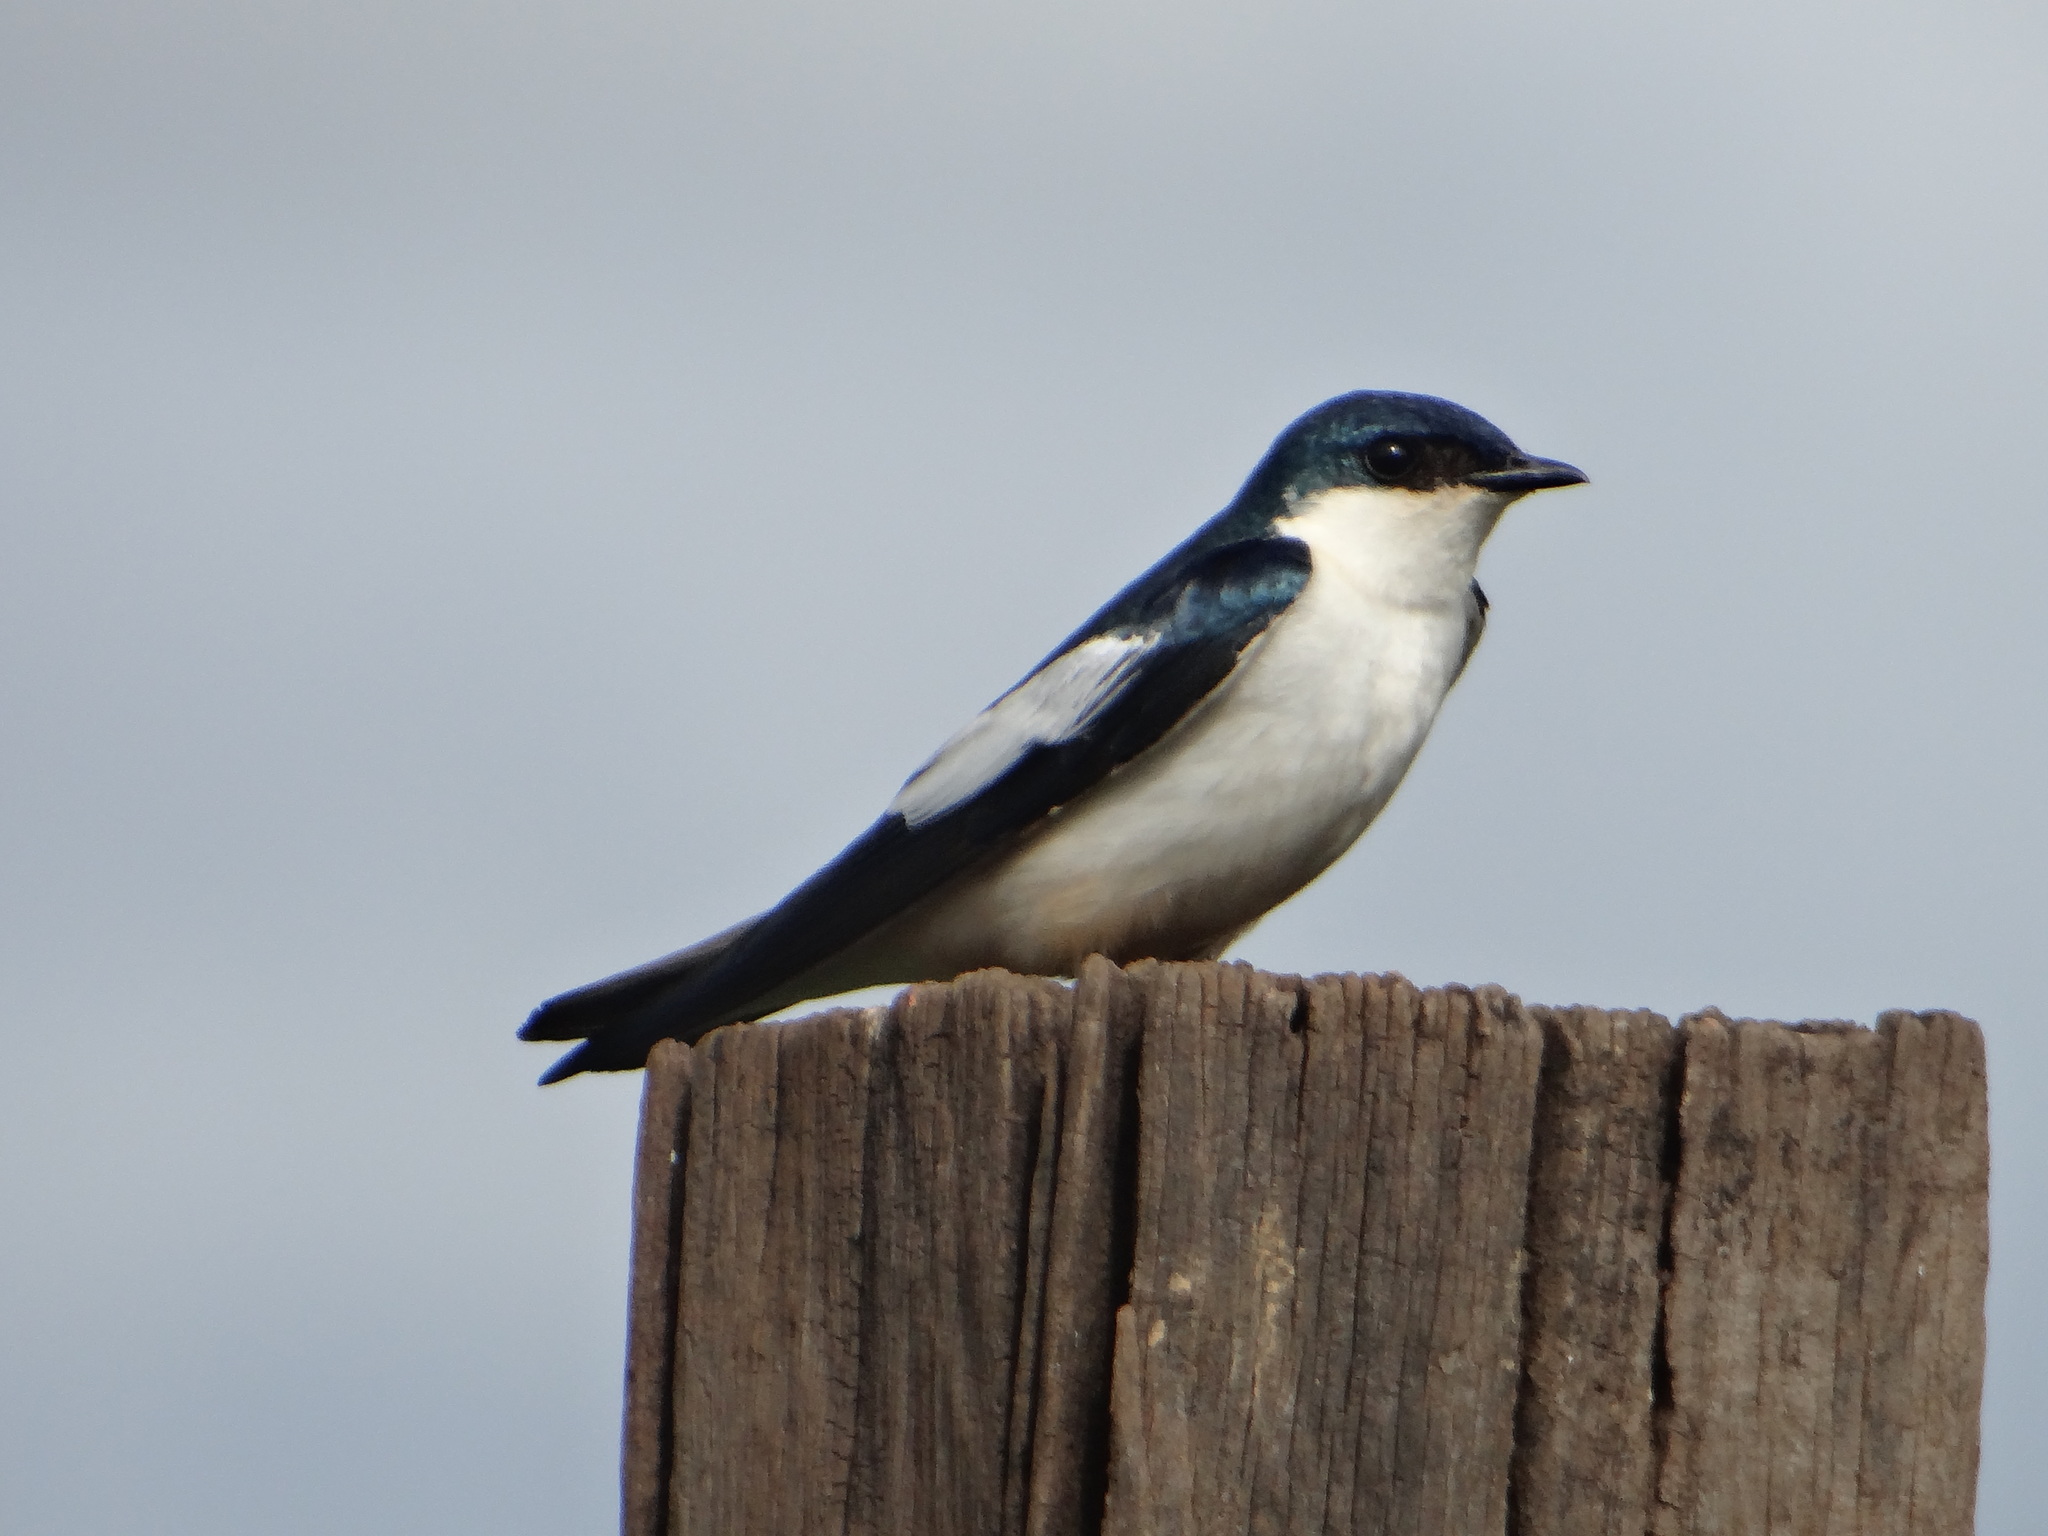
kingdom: Animalia
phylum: Chordata
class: Aves
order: Passeriformes
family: Hirundinidae
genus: Tachycineta
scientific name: Tachycineta albiventer
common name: White-winged swallow
